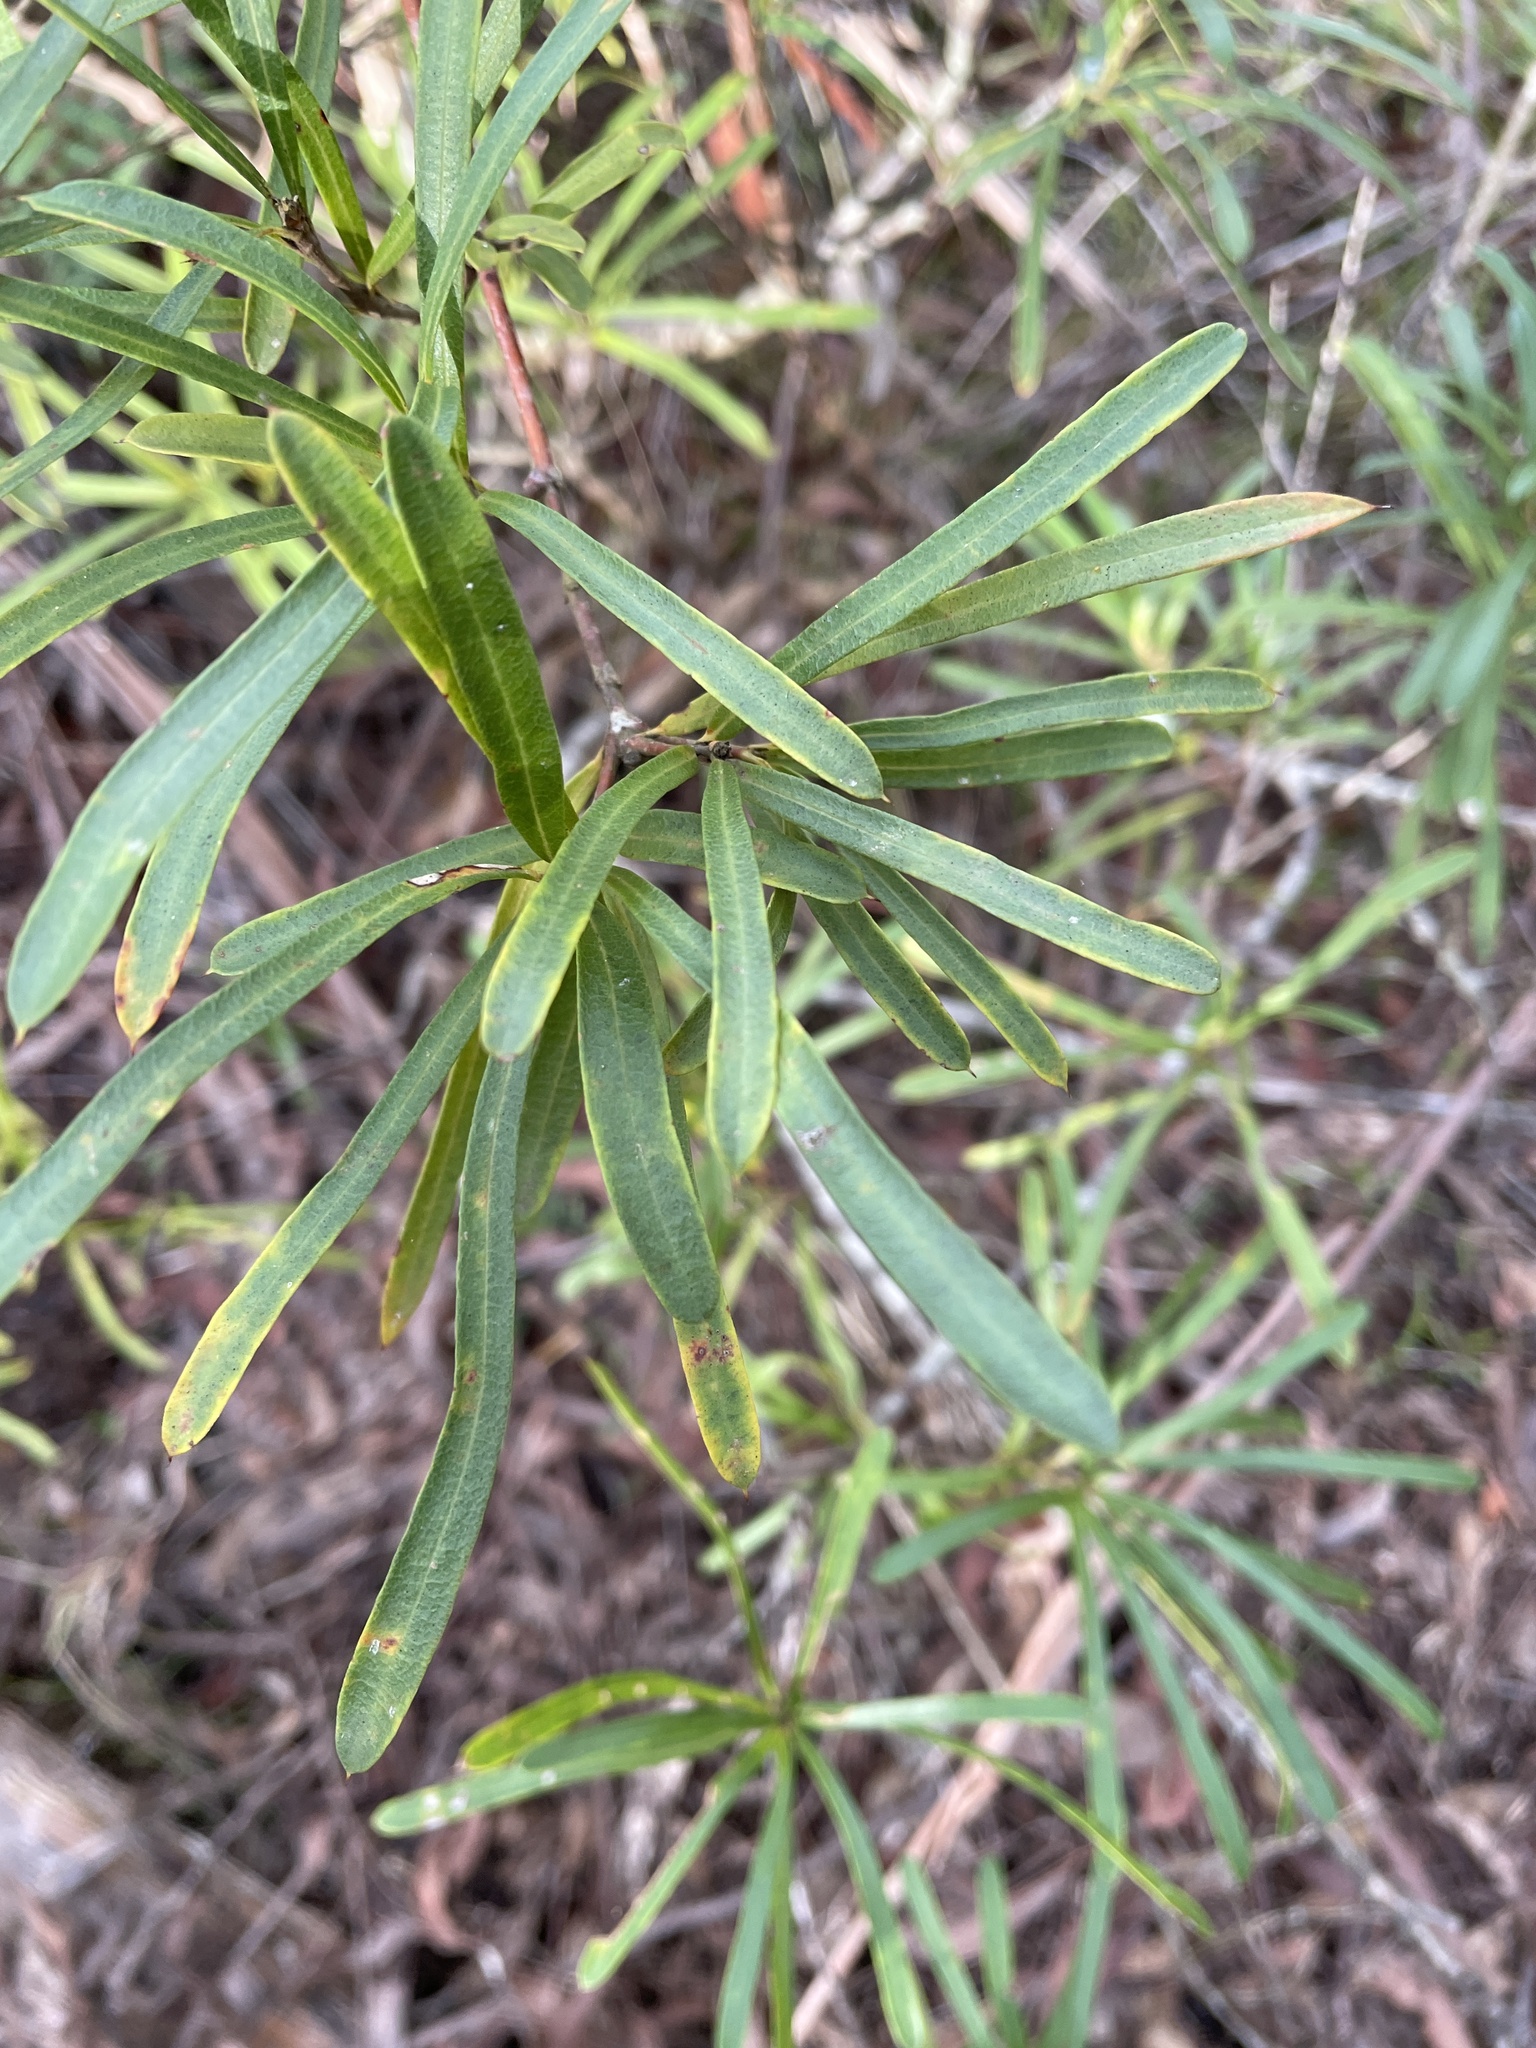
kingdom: Plantae
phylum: Tracheophyta
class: Magnoliopsida
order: Proteales
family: Proteaceae
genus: Lambertia
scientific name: Lambertia formosa
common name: Mountain-devil
